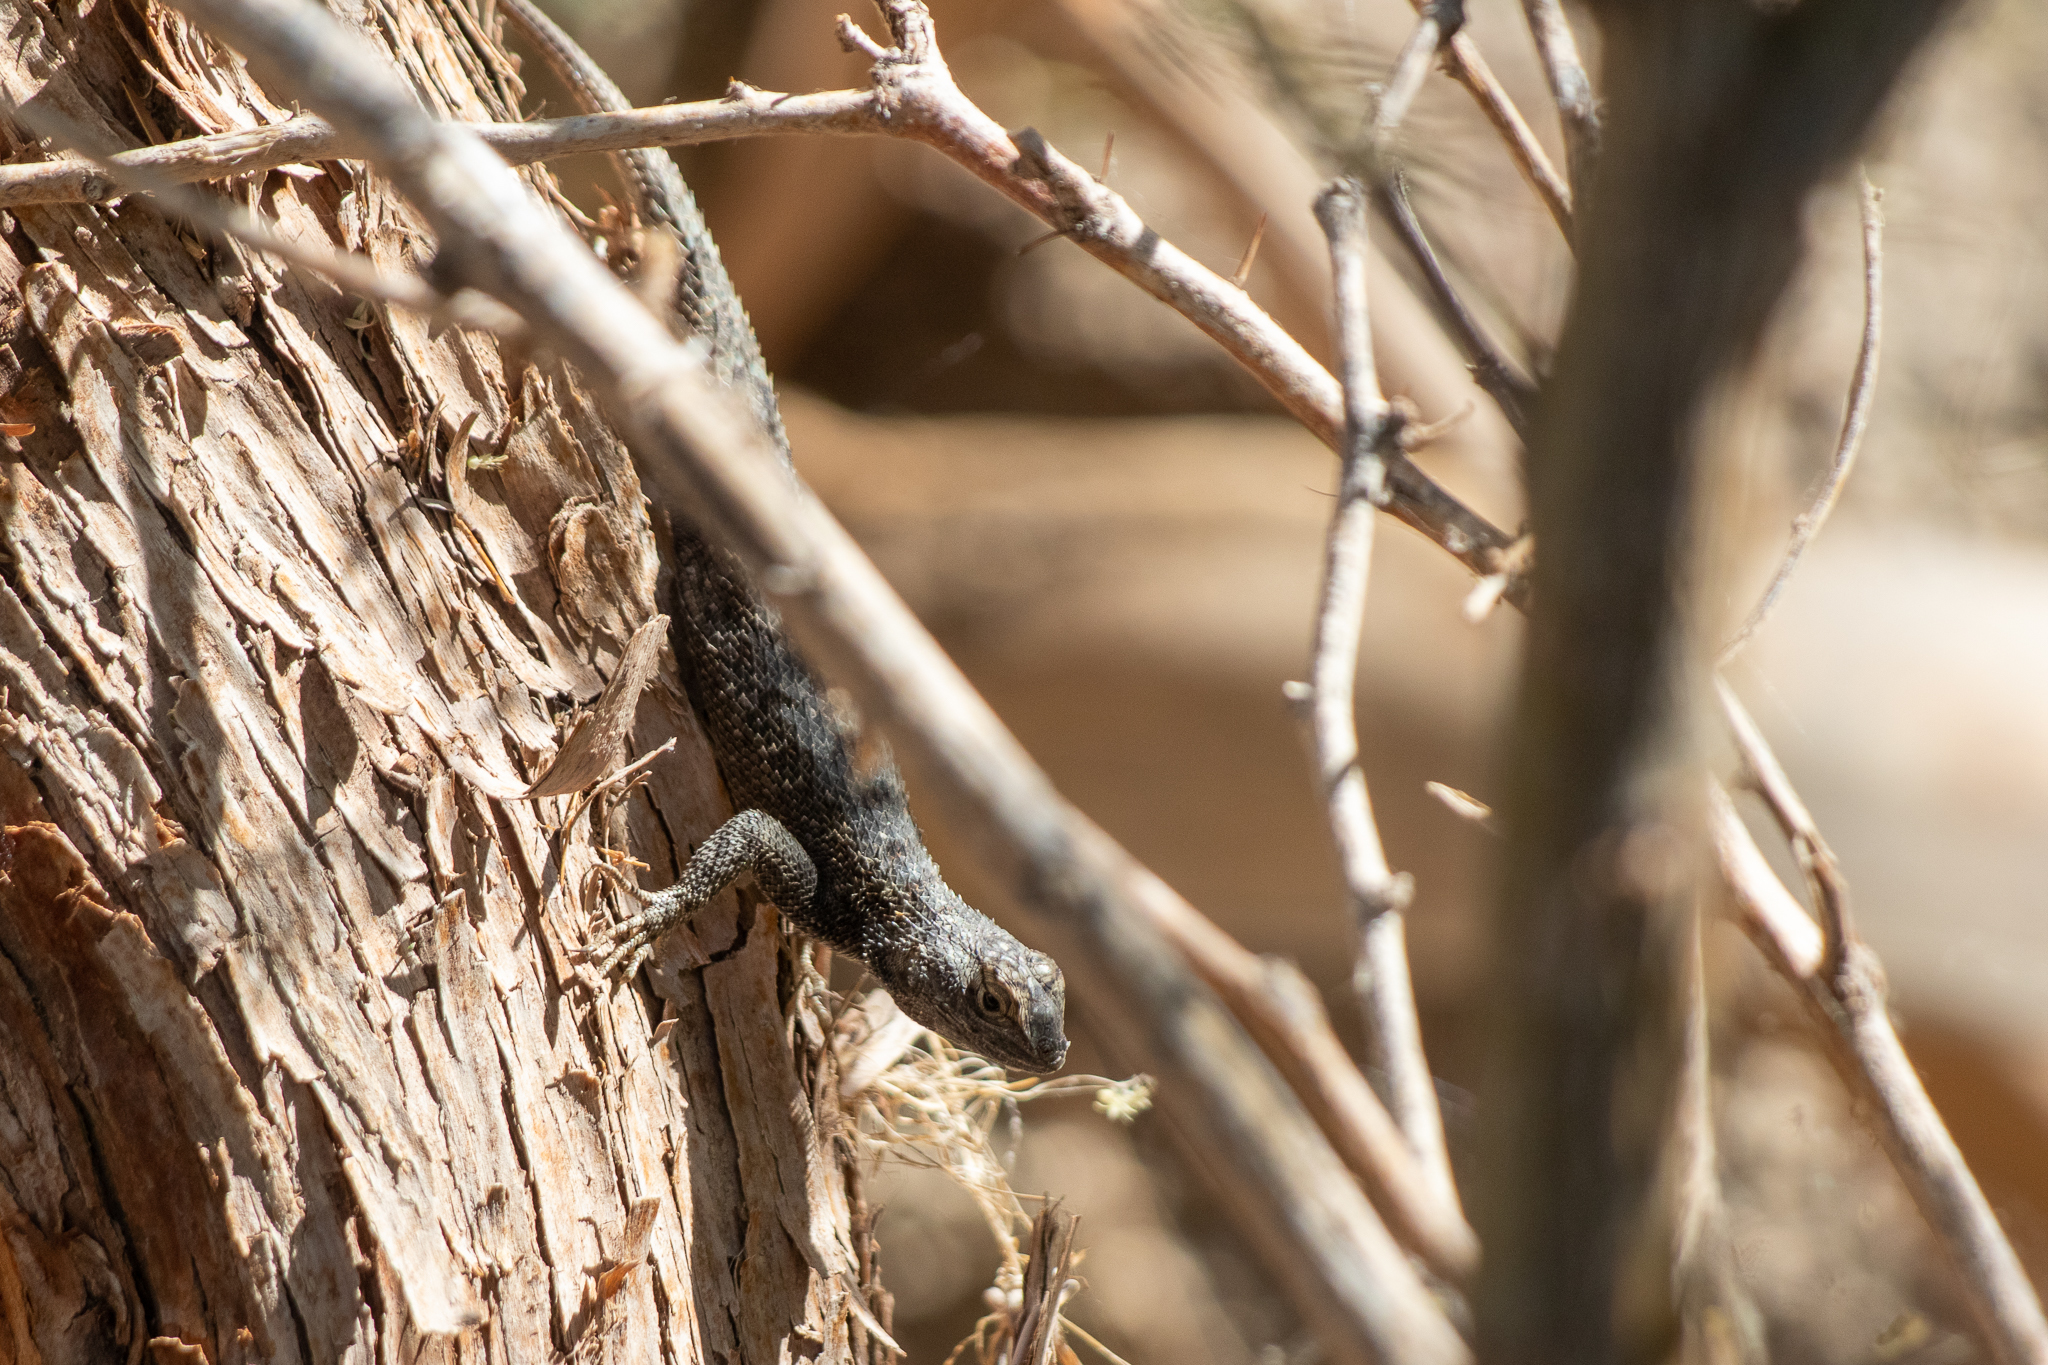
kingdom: Animalia
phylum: Chordata
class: Squamata
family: Phrynosomatidae
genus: Sceloporus
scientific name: Sceloporus occidentalis
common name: Western fence lizard
